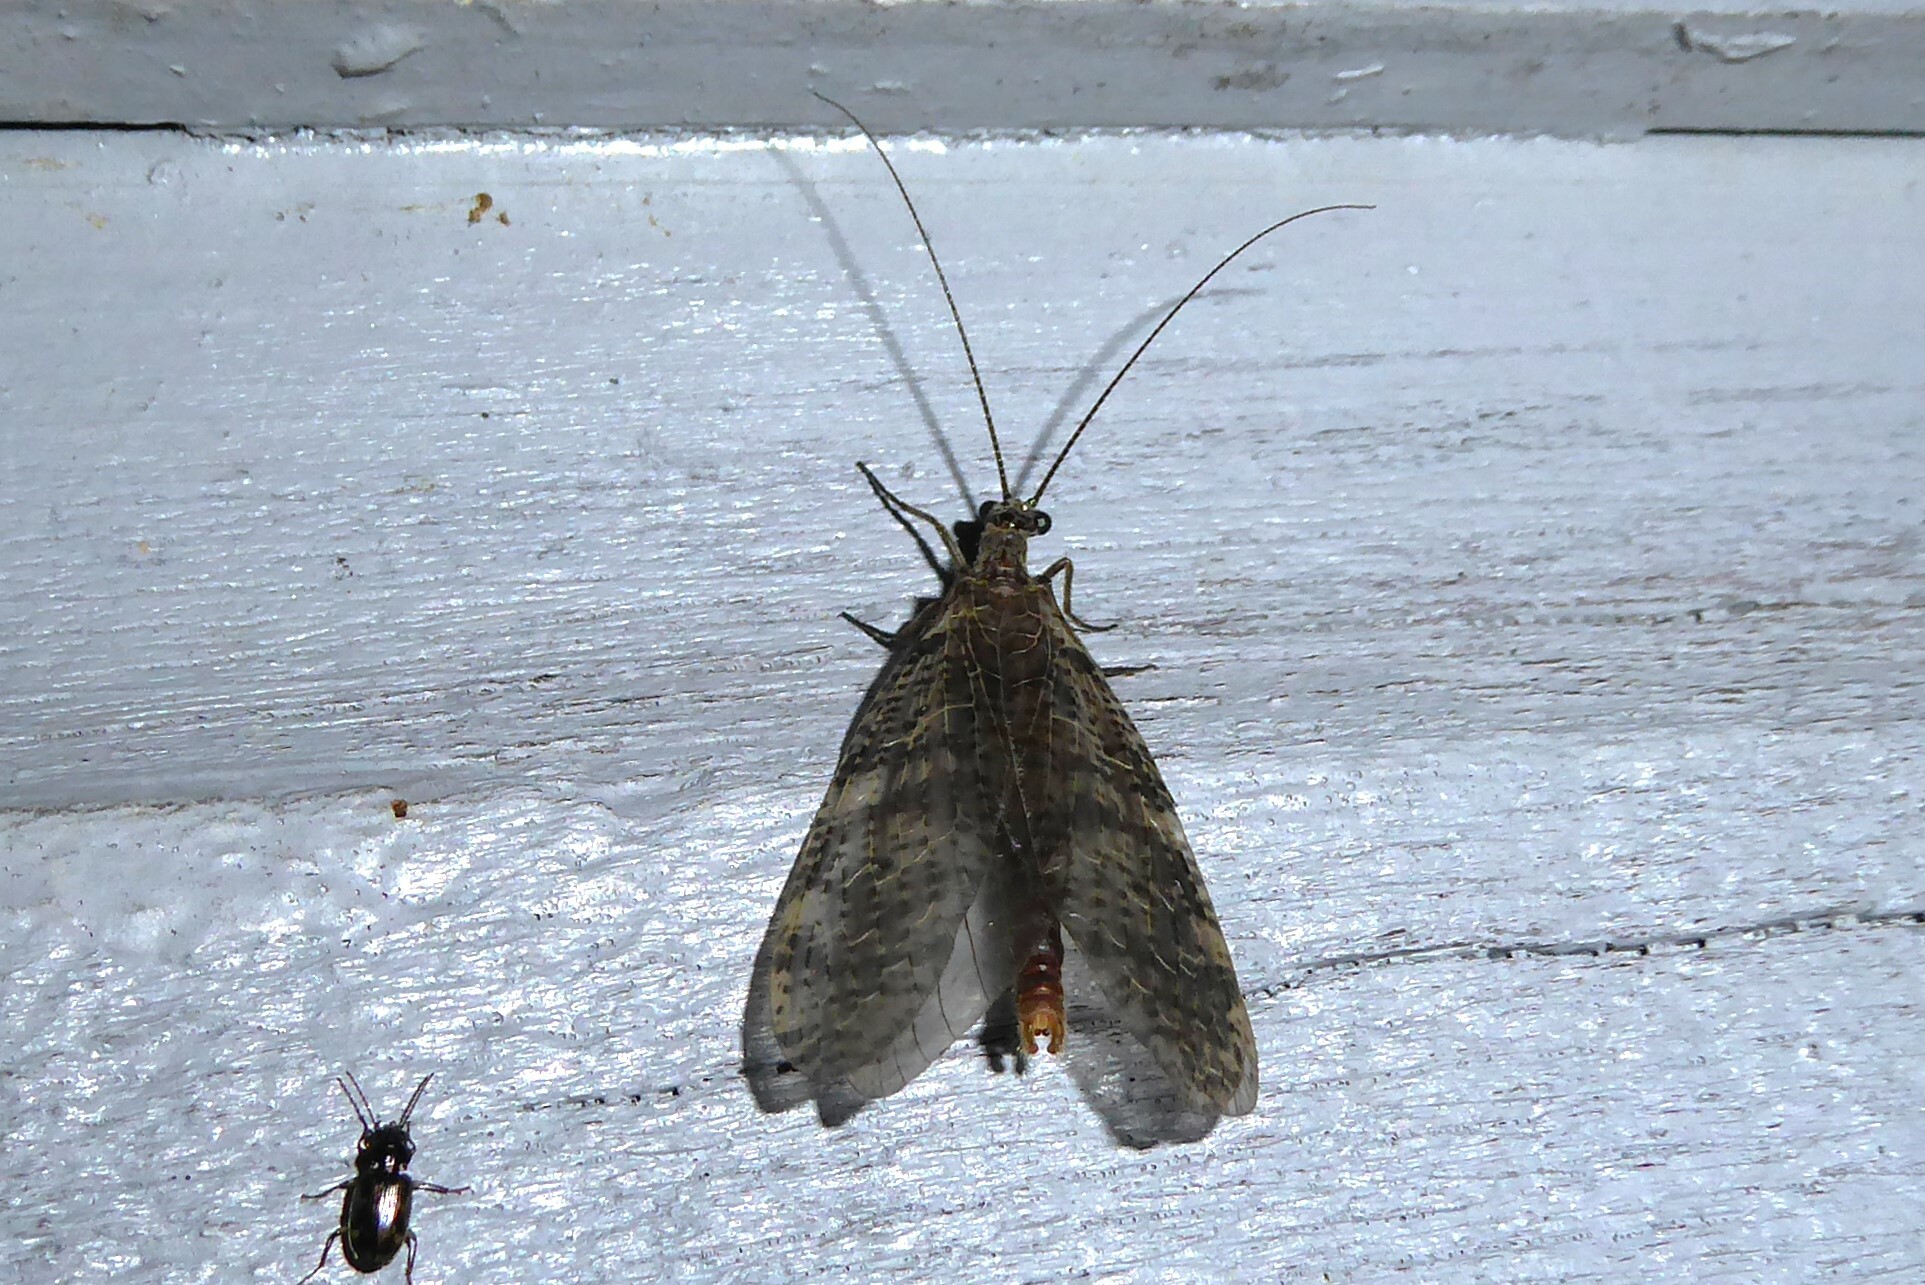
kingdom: Animalia
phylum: Arthropoda
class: Insecta
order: Megaloptera
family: Corydalidae
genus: Archichauliodes
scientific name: Archichauliodes diversus
